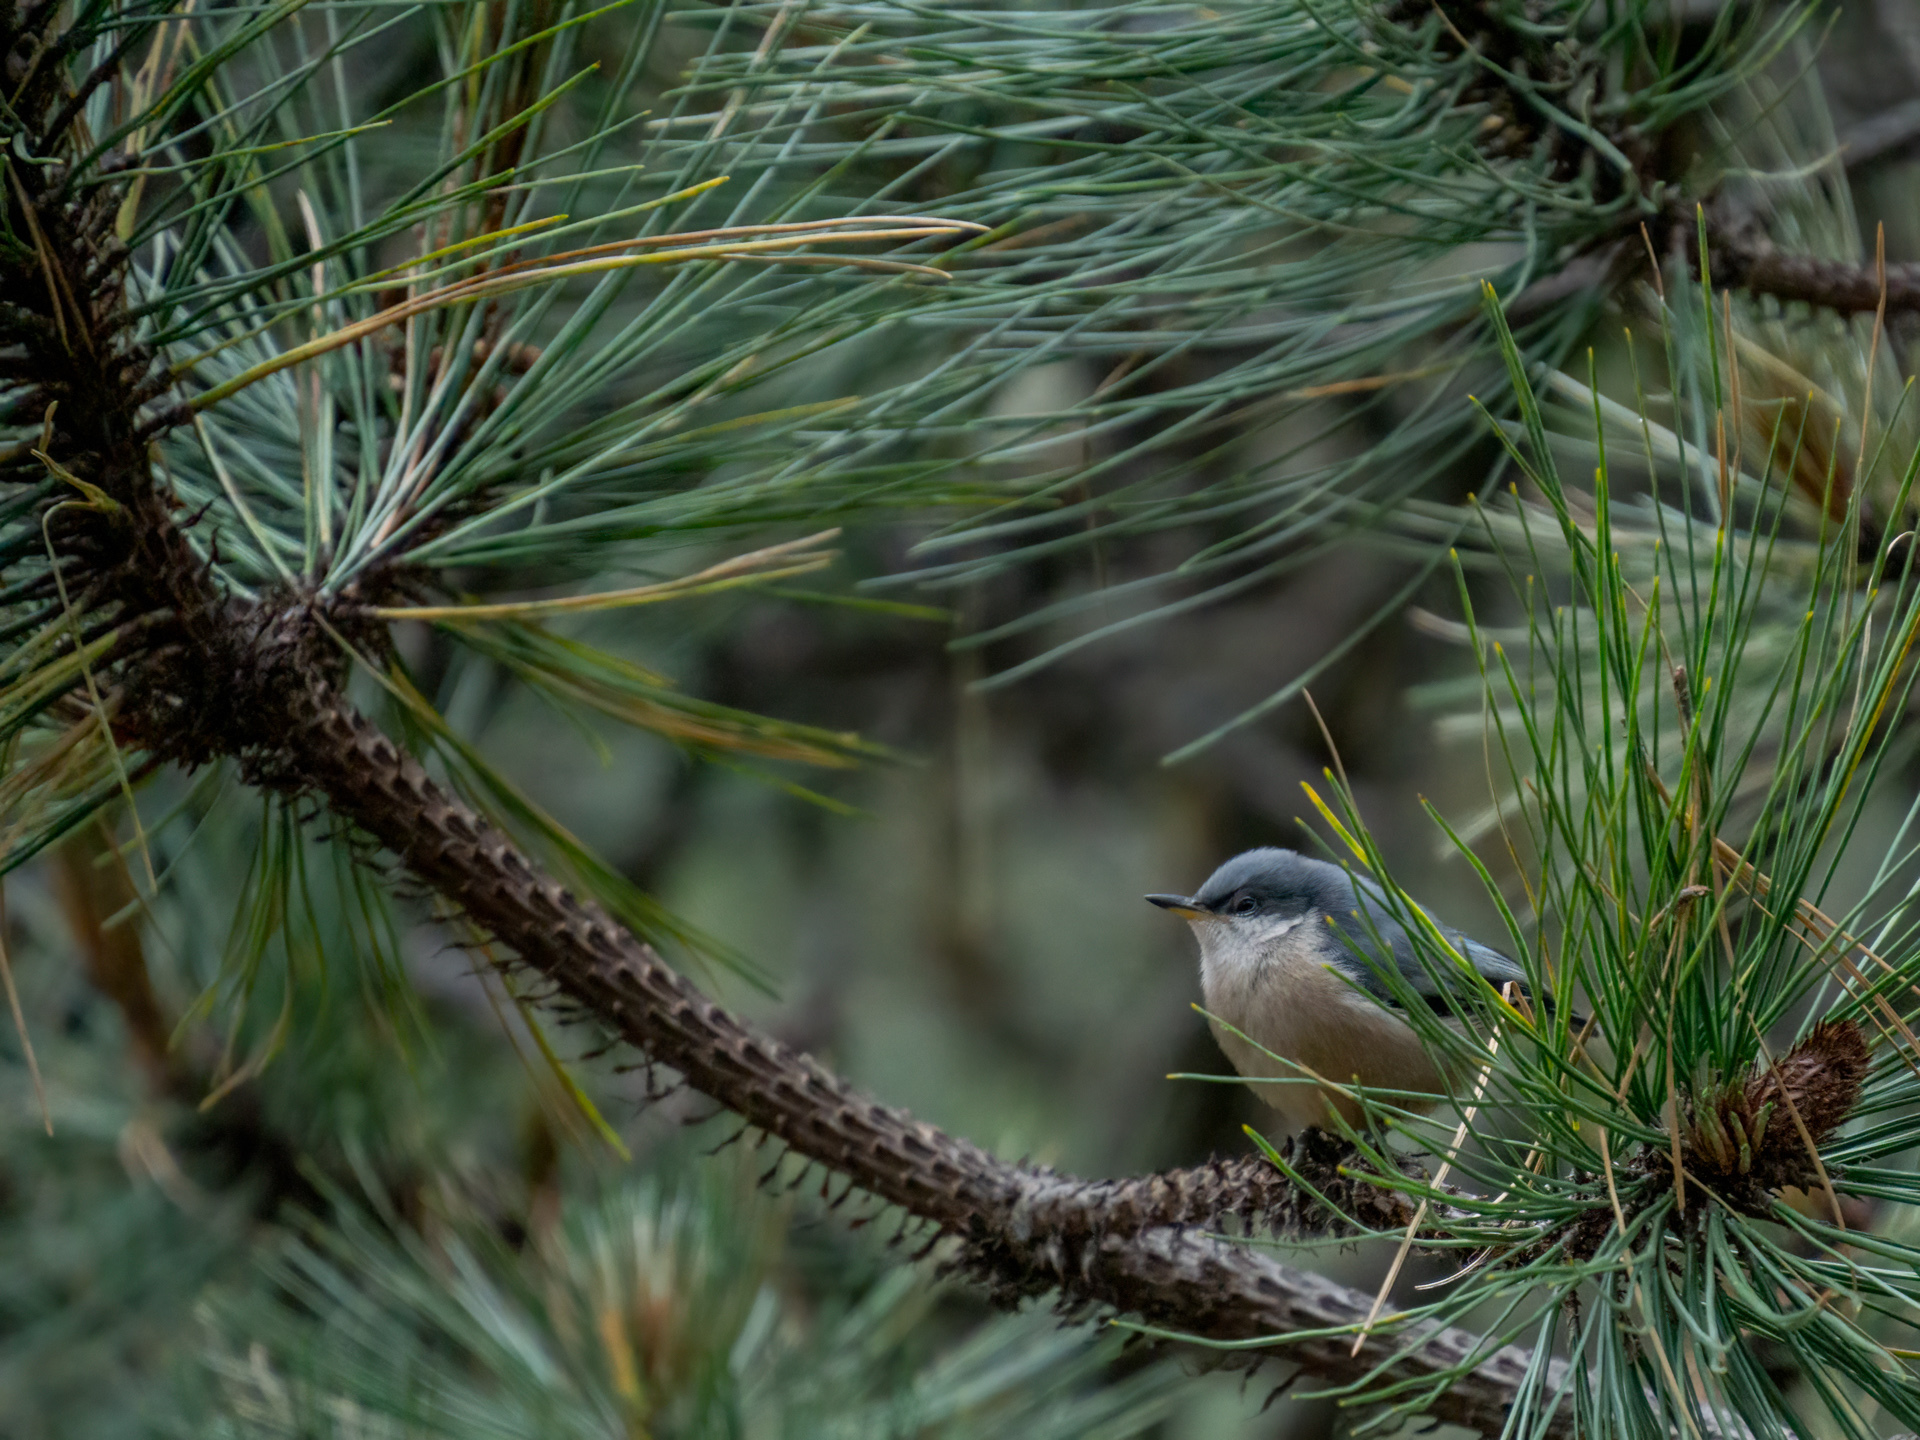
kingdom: Animalia
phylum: Chordata
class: Aves
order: Passeriformes
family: Sittidae
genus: Sitta
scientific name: Sitta pygmaea
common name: Pygmy nuthatch
